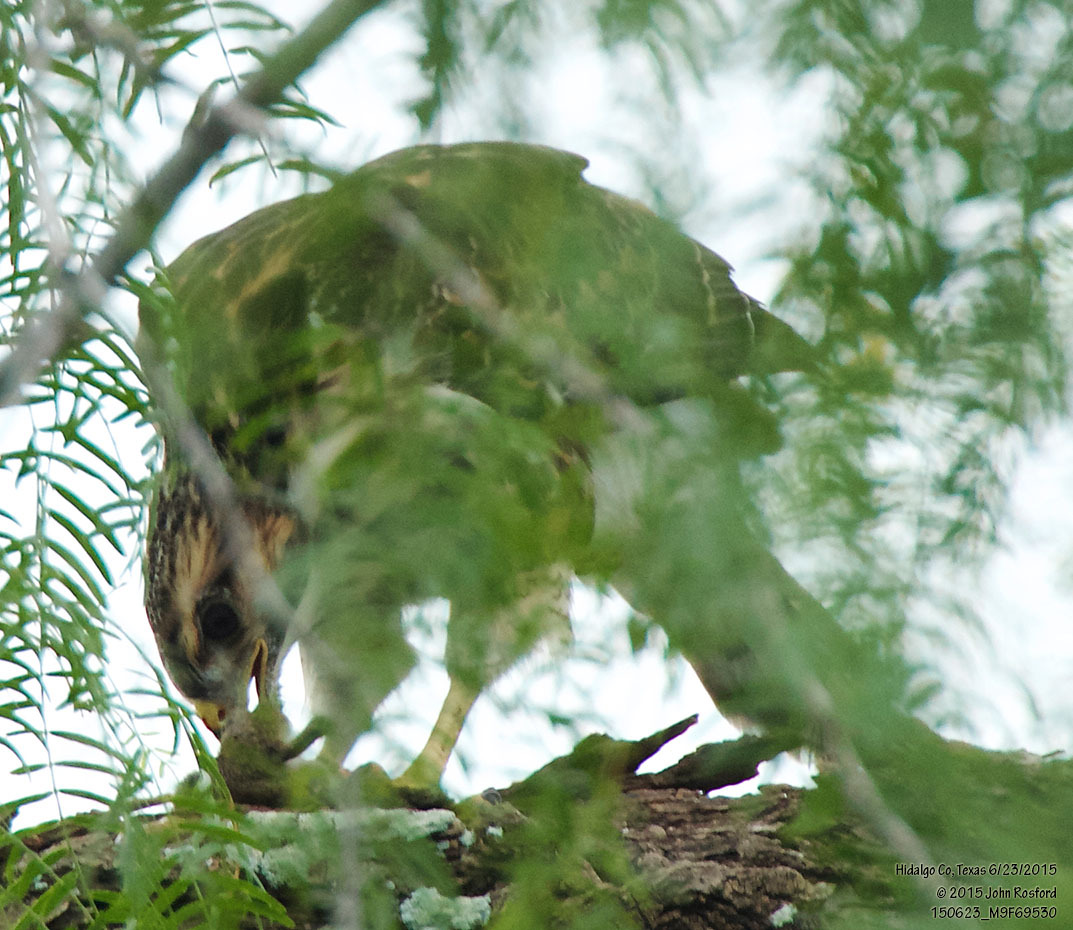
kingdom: Animalia
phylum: Chordata
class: Aves
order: Accipitriformes
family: Accipitridae
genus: Buteo
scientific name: Buteo nitidus
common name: Grey-lined hawk
